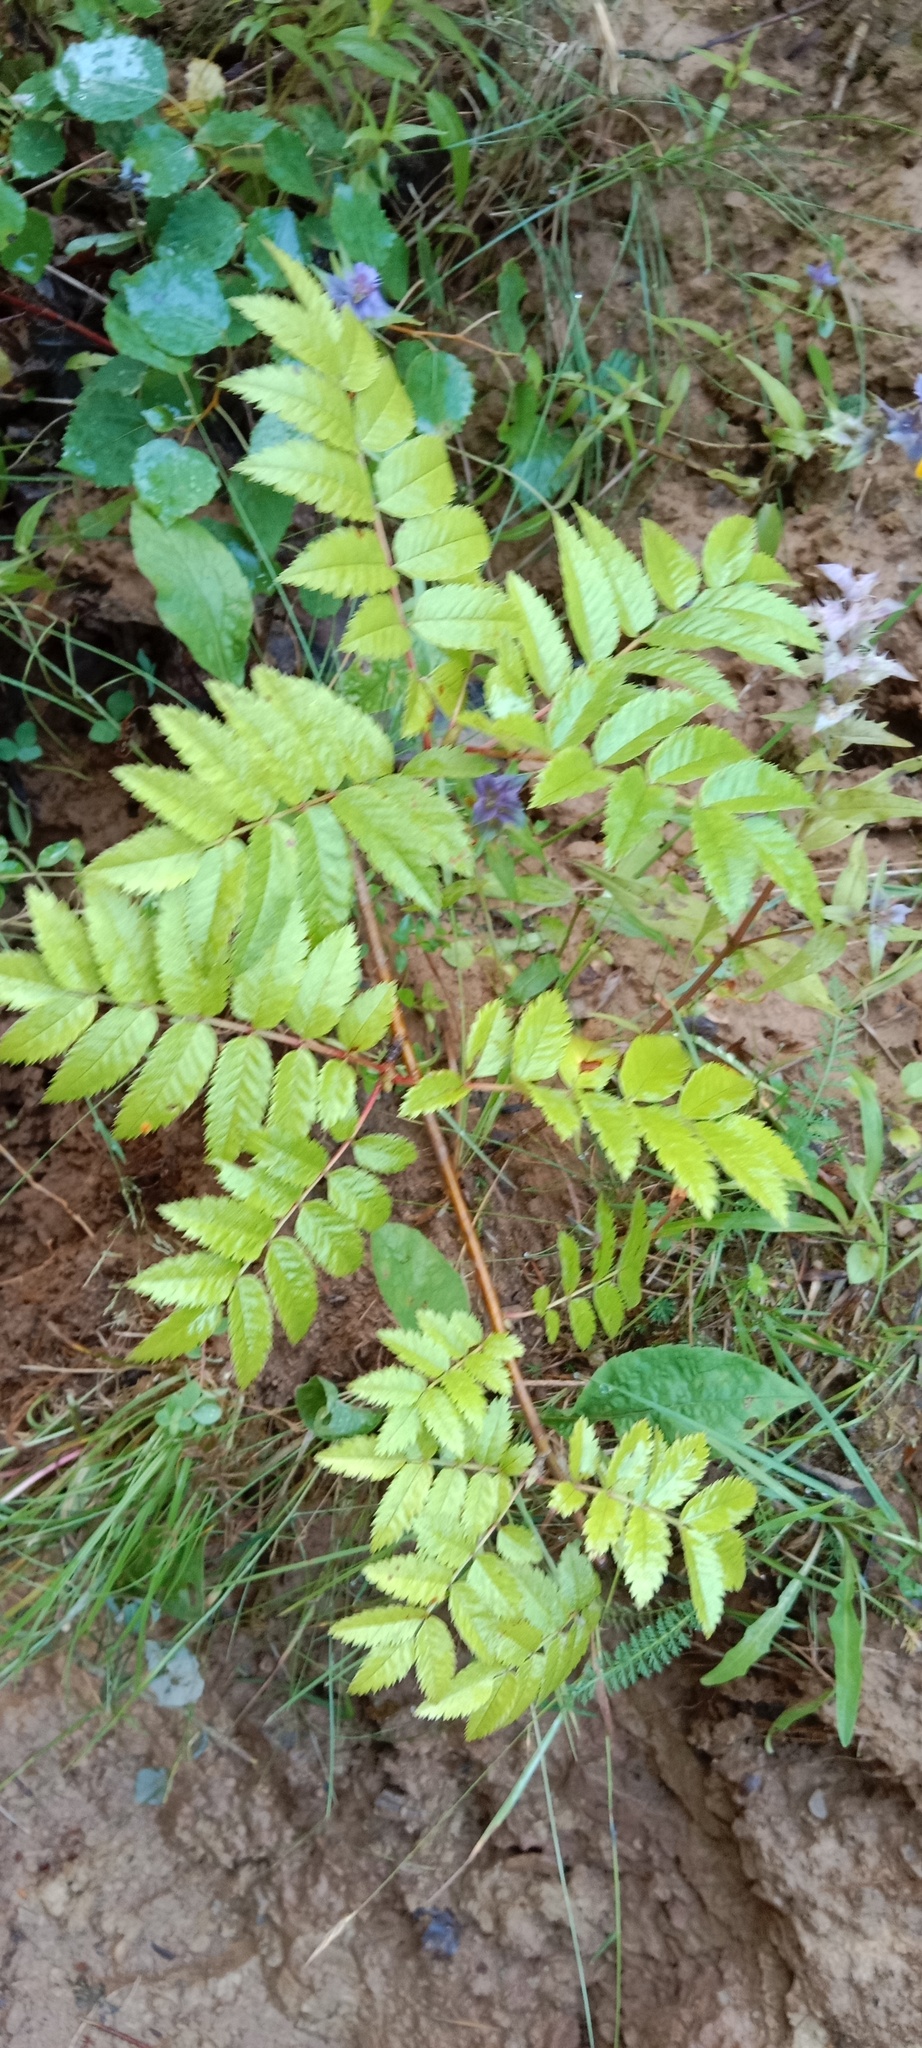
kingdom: Plantae
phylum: Tracheophyta
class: Magnoliopsida
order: Rosales
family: Rosaceae
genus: Sorbus
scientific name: Sorbus aucuparia
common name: Rowan
